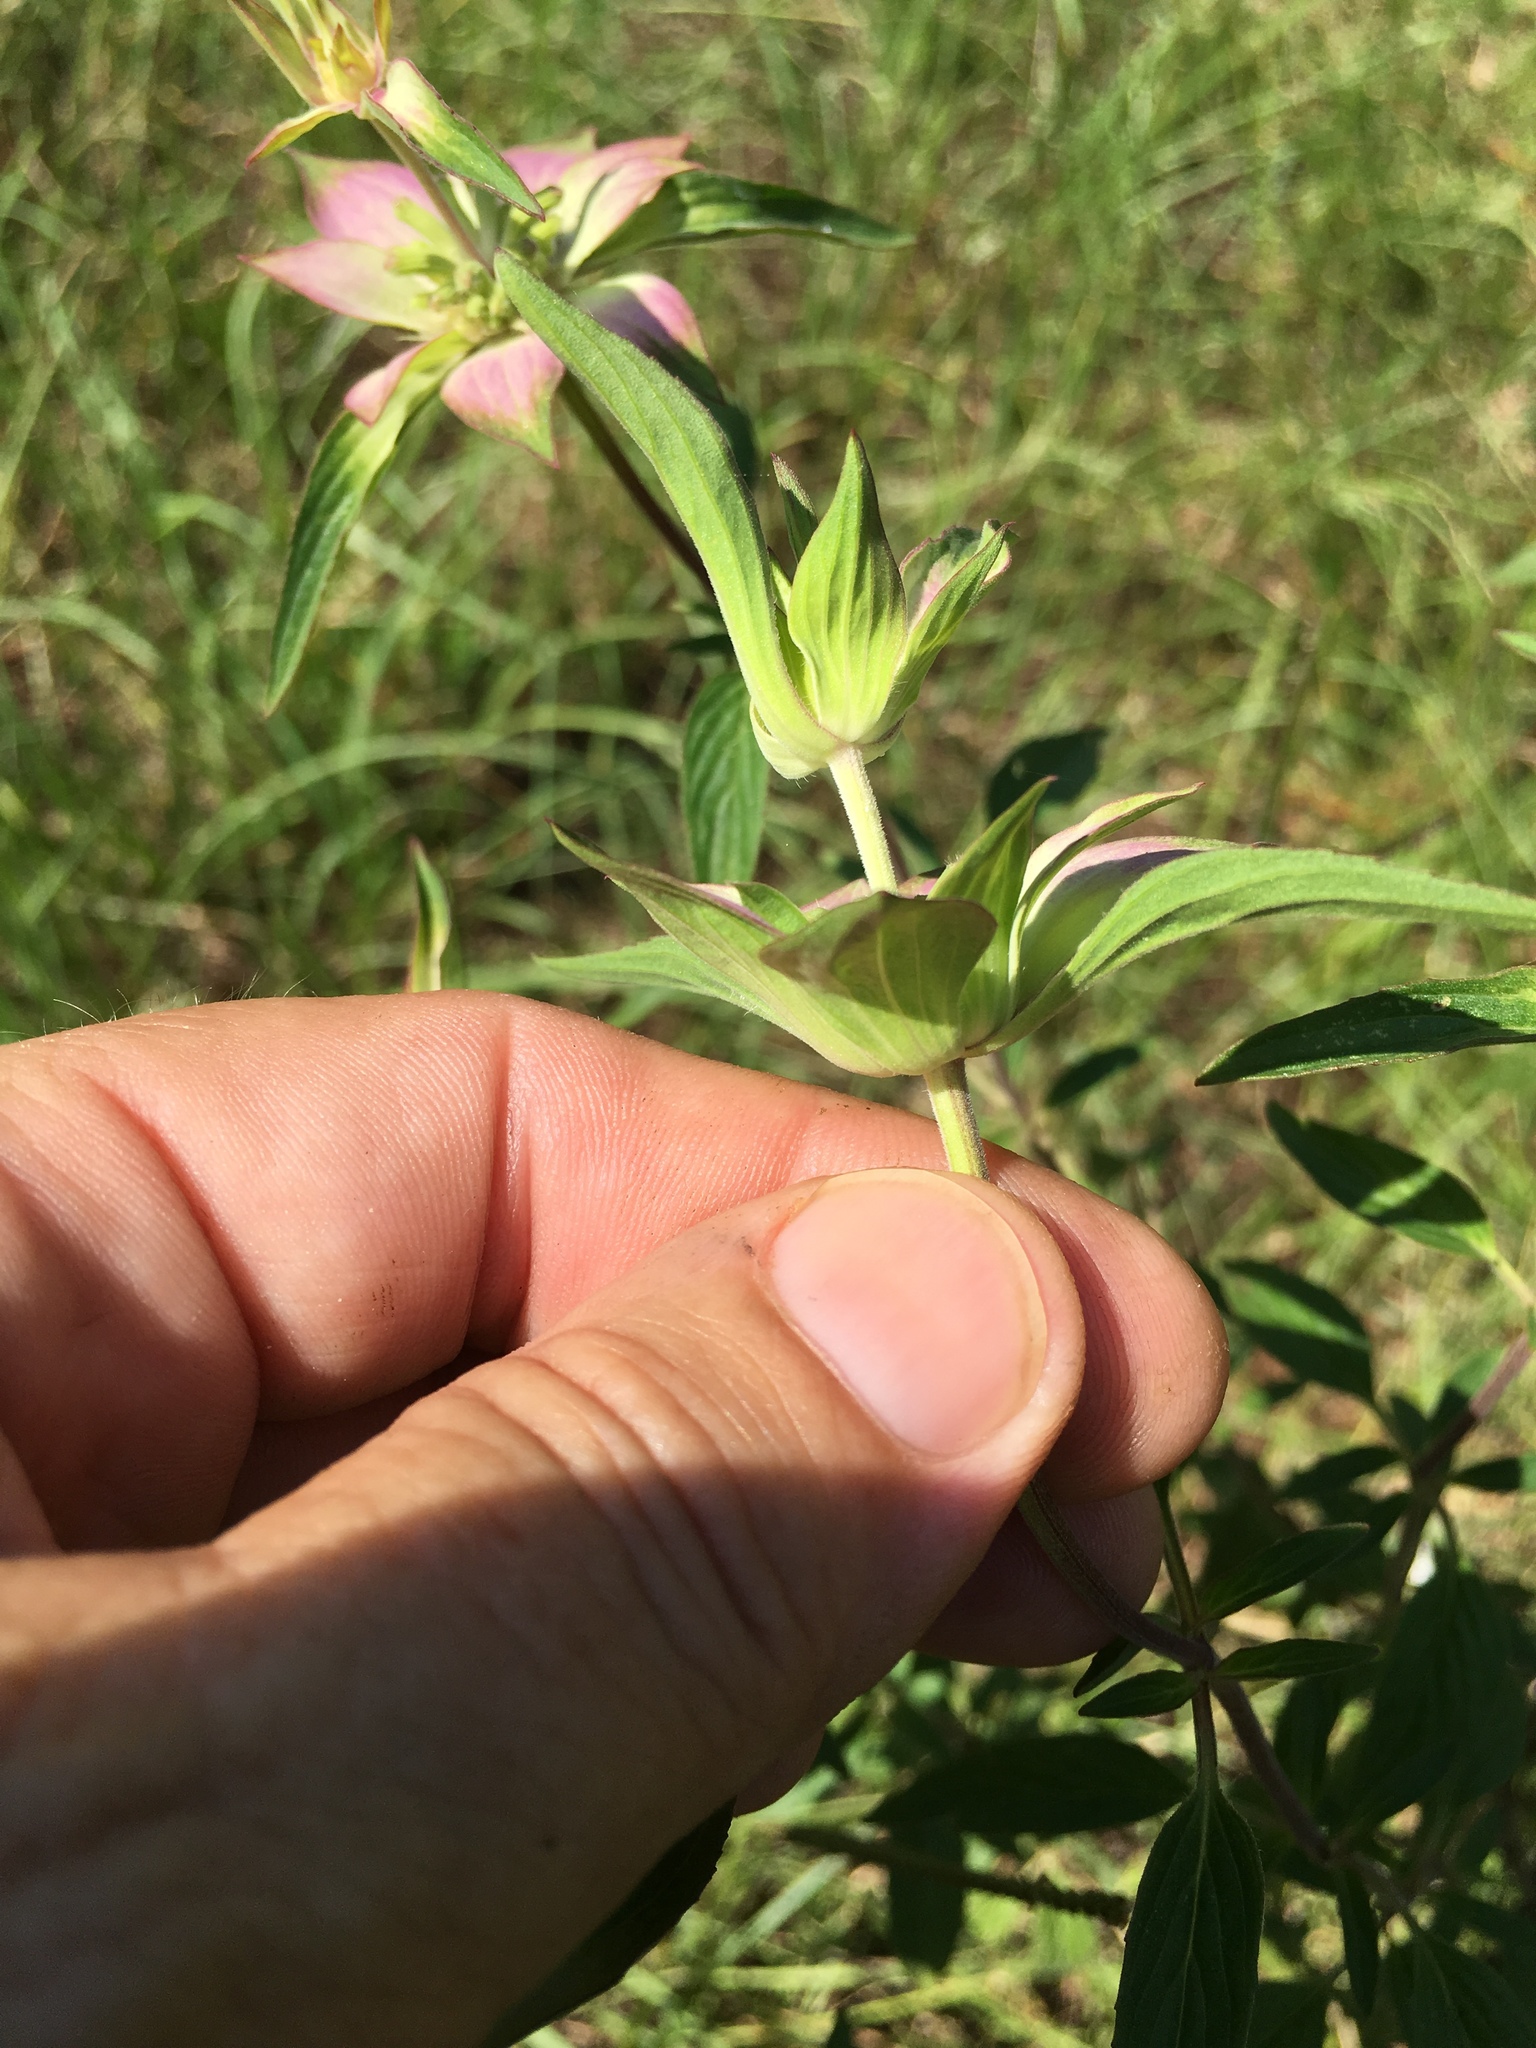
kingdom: Plantae
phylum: Tracheophyta
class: Magnoliopsida
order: Lamiales
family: Lamiaceae
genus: Monarda
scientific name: Monarda punctata
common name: Dotted monarda
